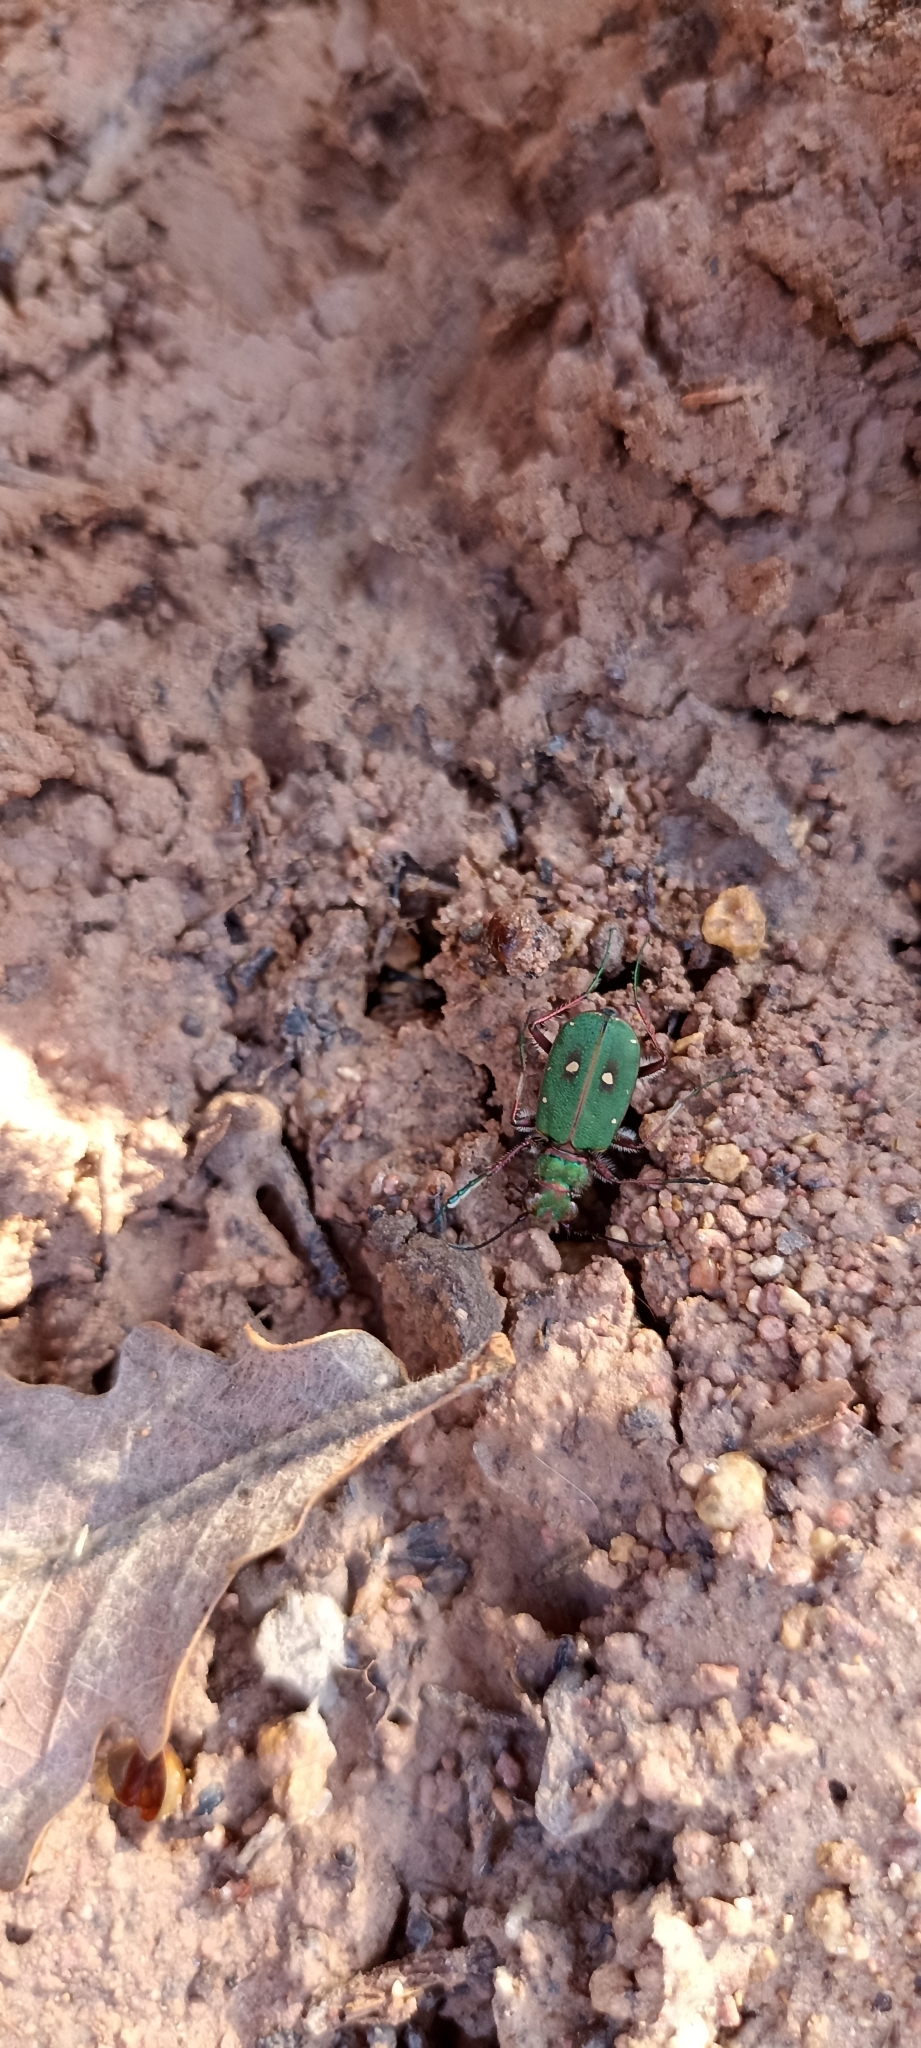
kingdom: Animalia
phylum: Arthropoda
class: Insecta
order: Coleoptera
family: Carabidae
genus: Cicindela
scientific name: Cicindela campestris
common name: Common tiger beetle
